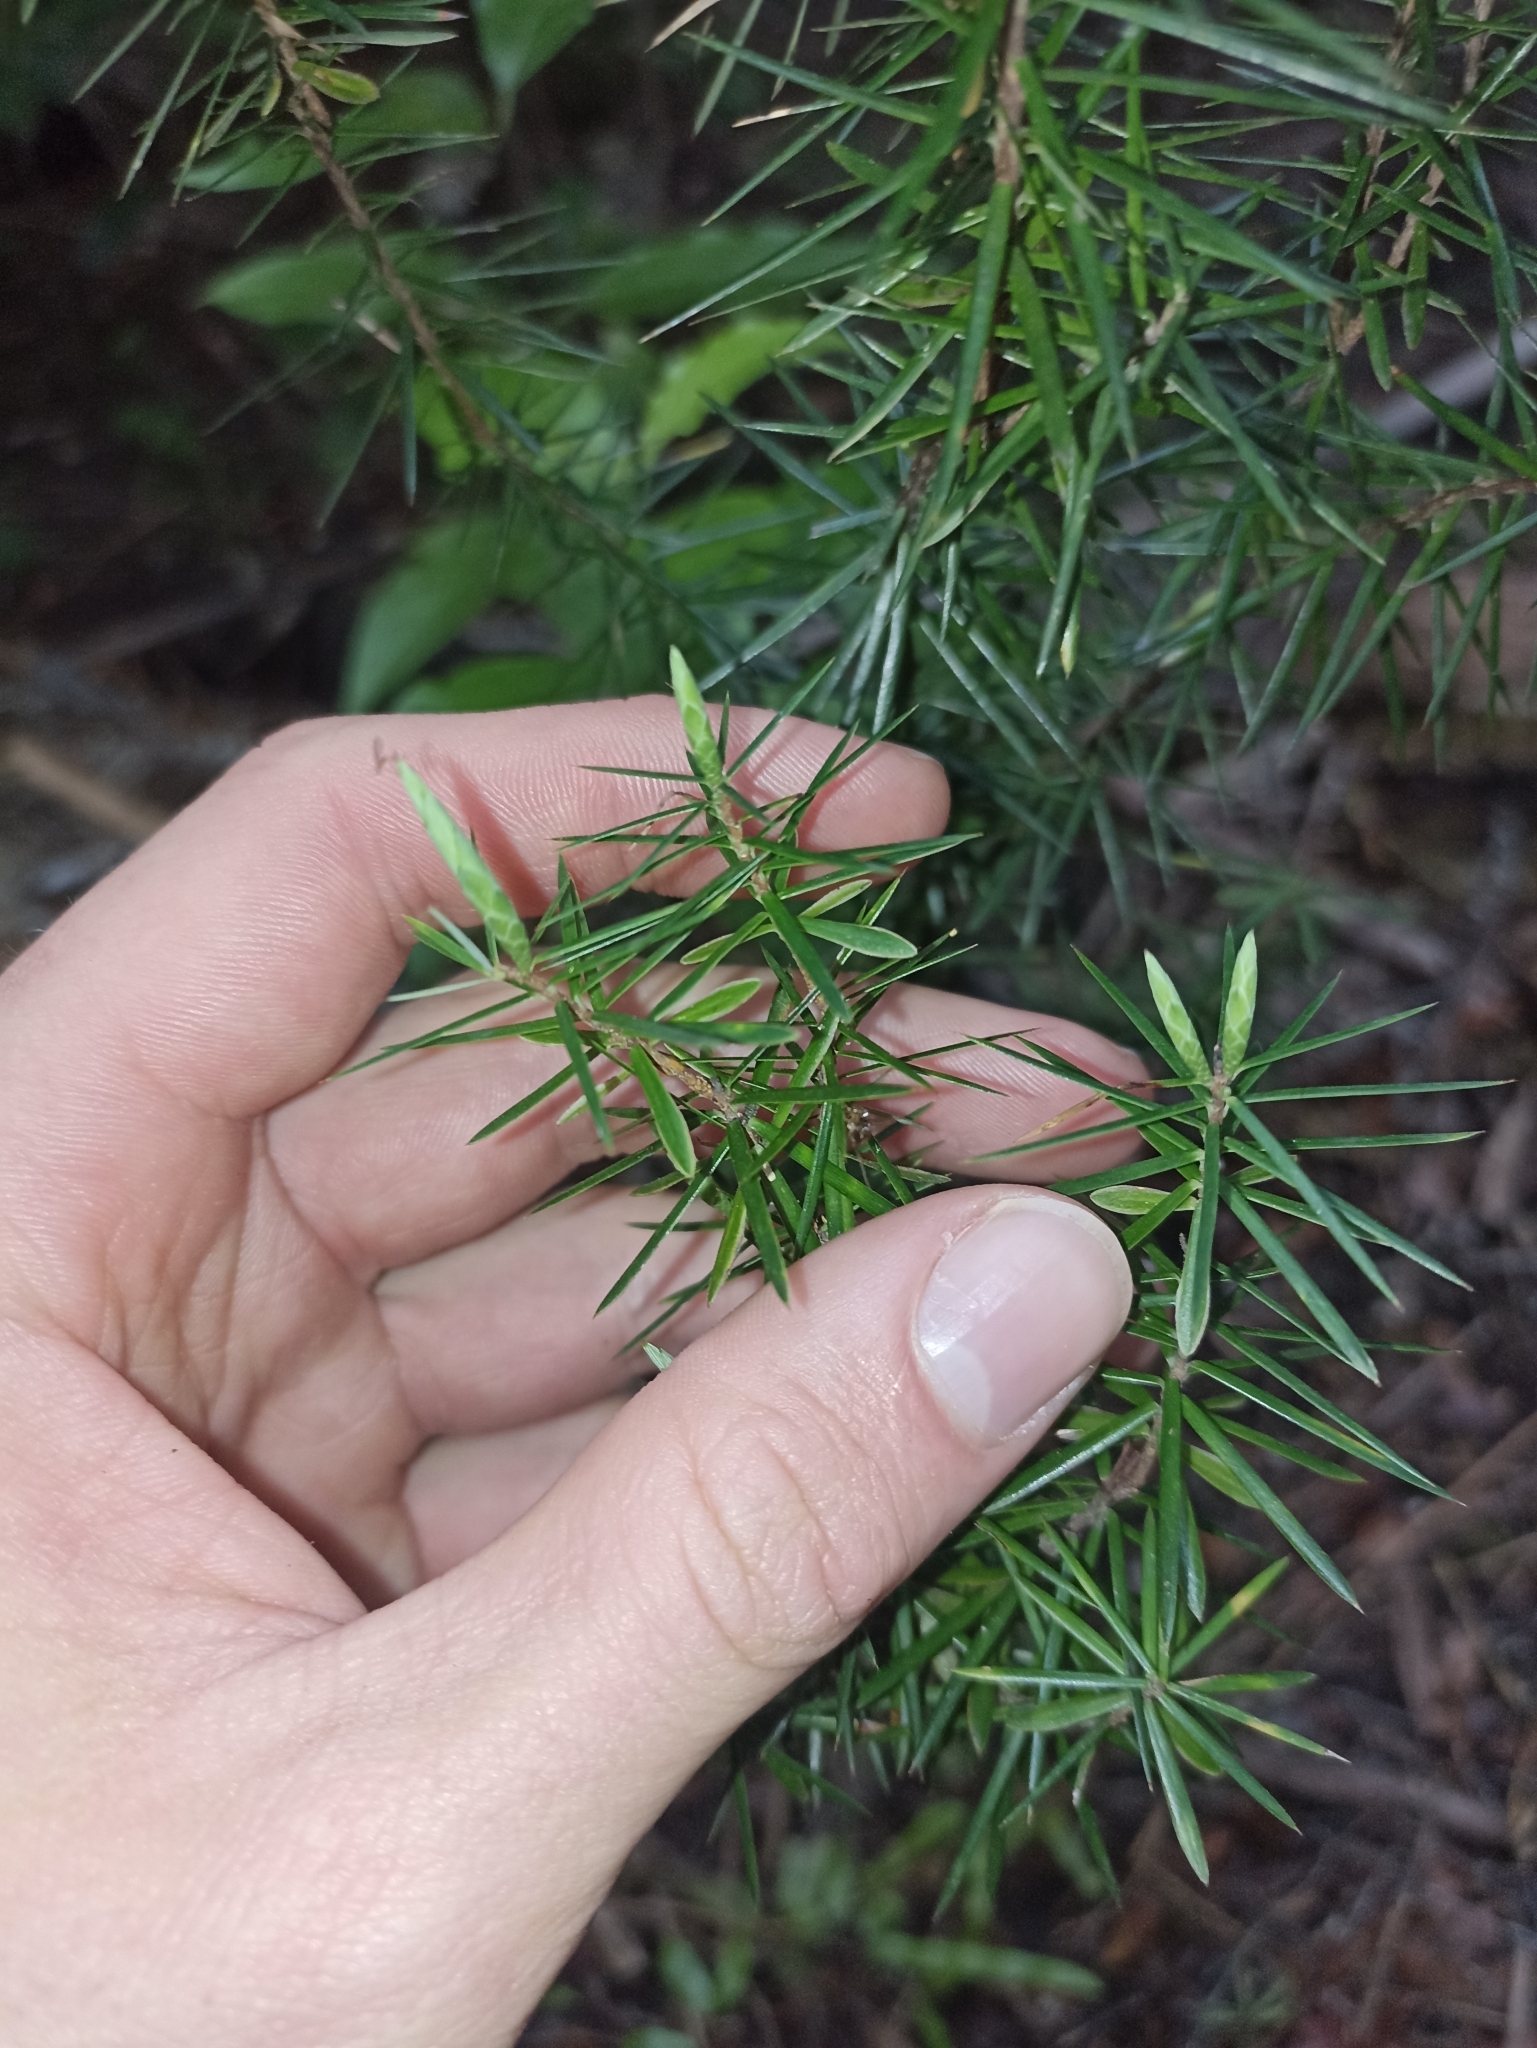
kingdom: Plantae
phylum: Tracheophyta
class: Magnoliopsida
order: Ericales
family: Ericaceae
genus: Leptecophylla
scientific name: Leptecophylla juniperina
